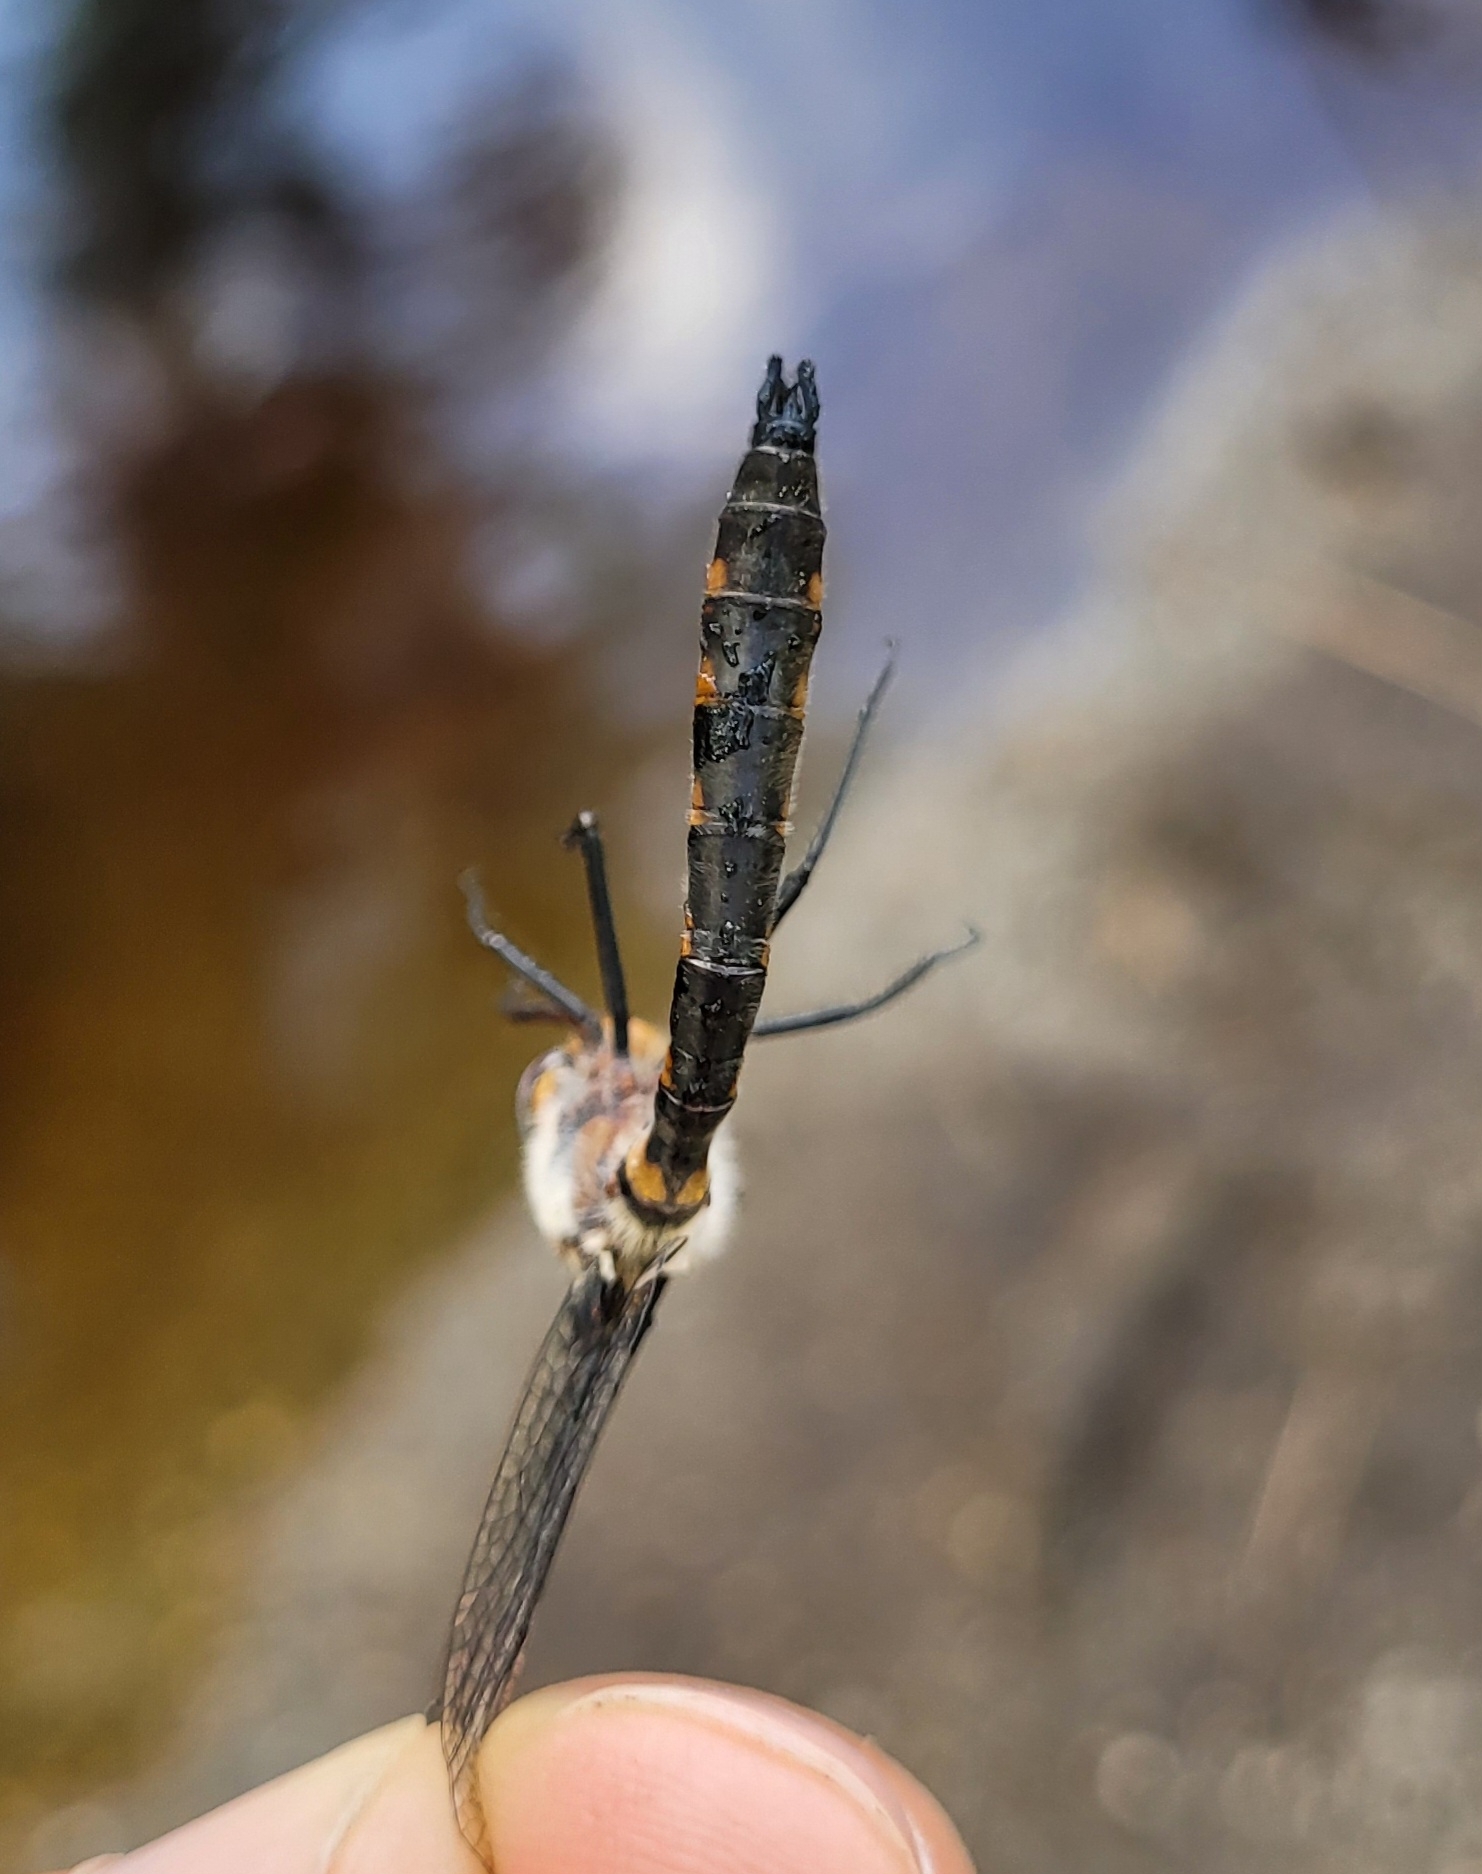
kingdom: Animalia
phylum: Arthropoda
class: Insecta
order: Odonata
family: Corduliidae
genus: Helocordulia
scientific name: Helocordulia uhleri
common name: Uhler's sundragon
